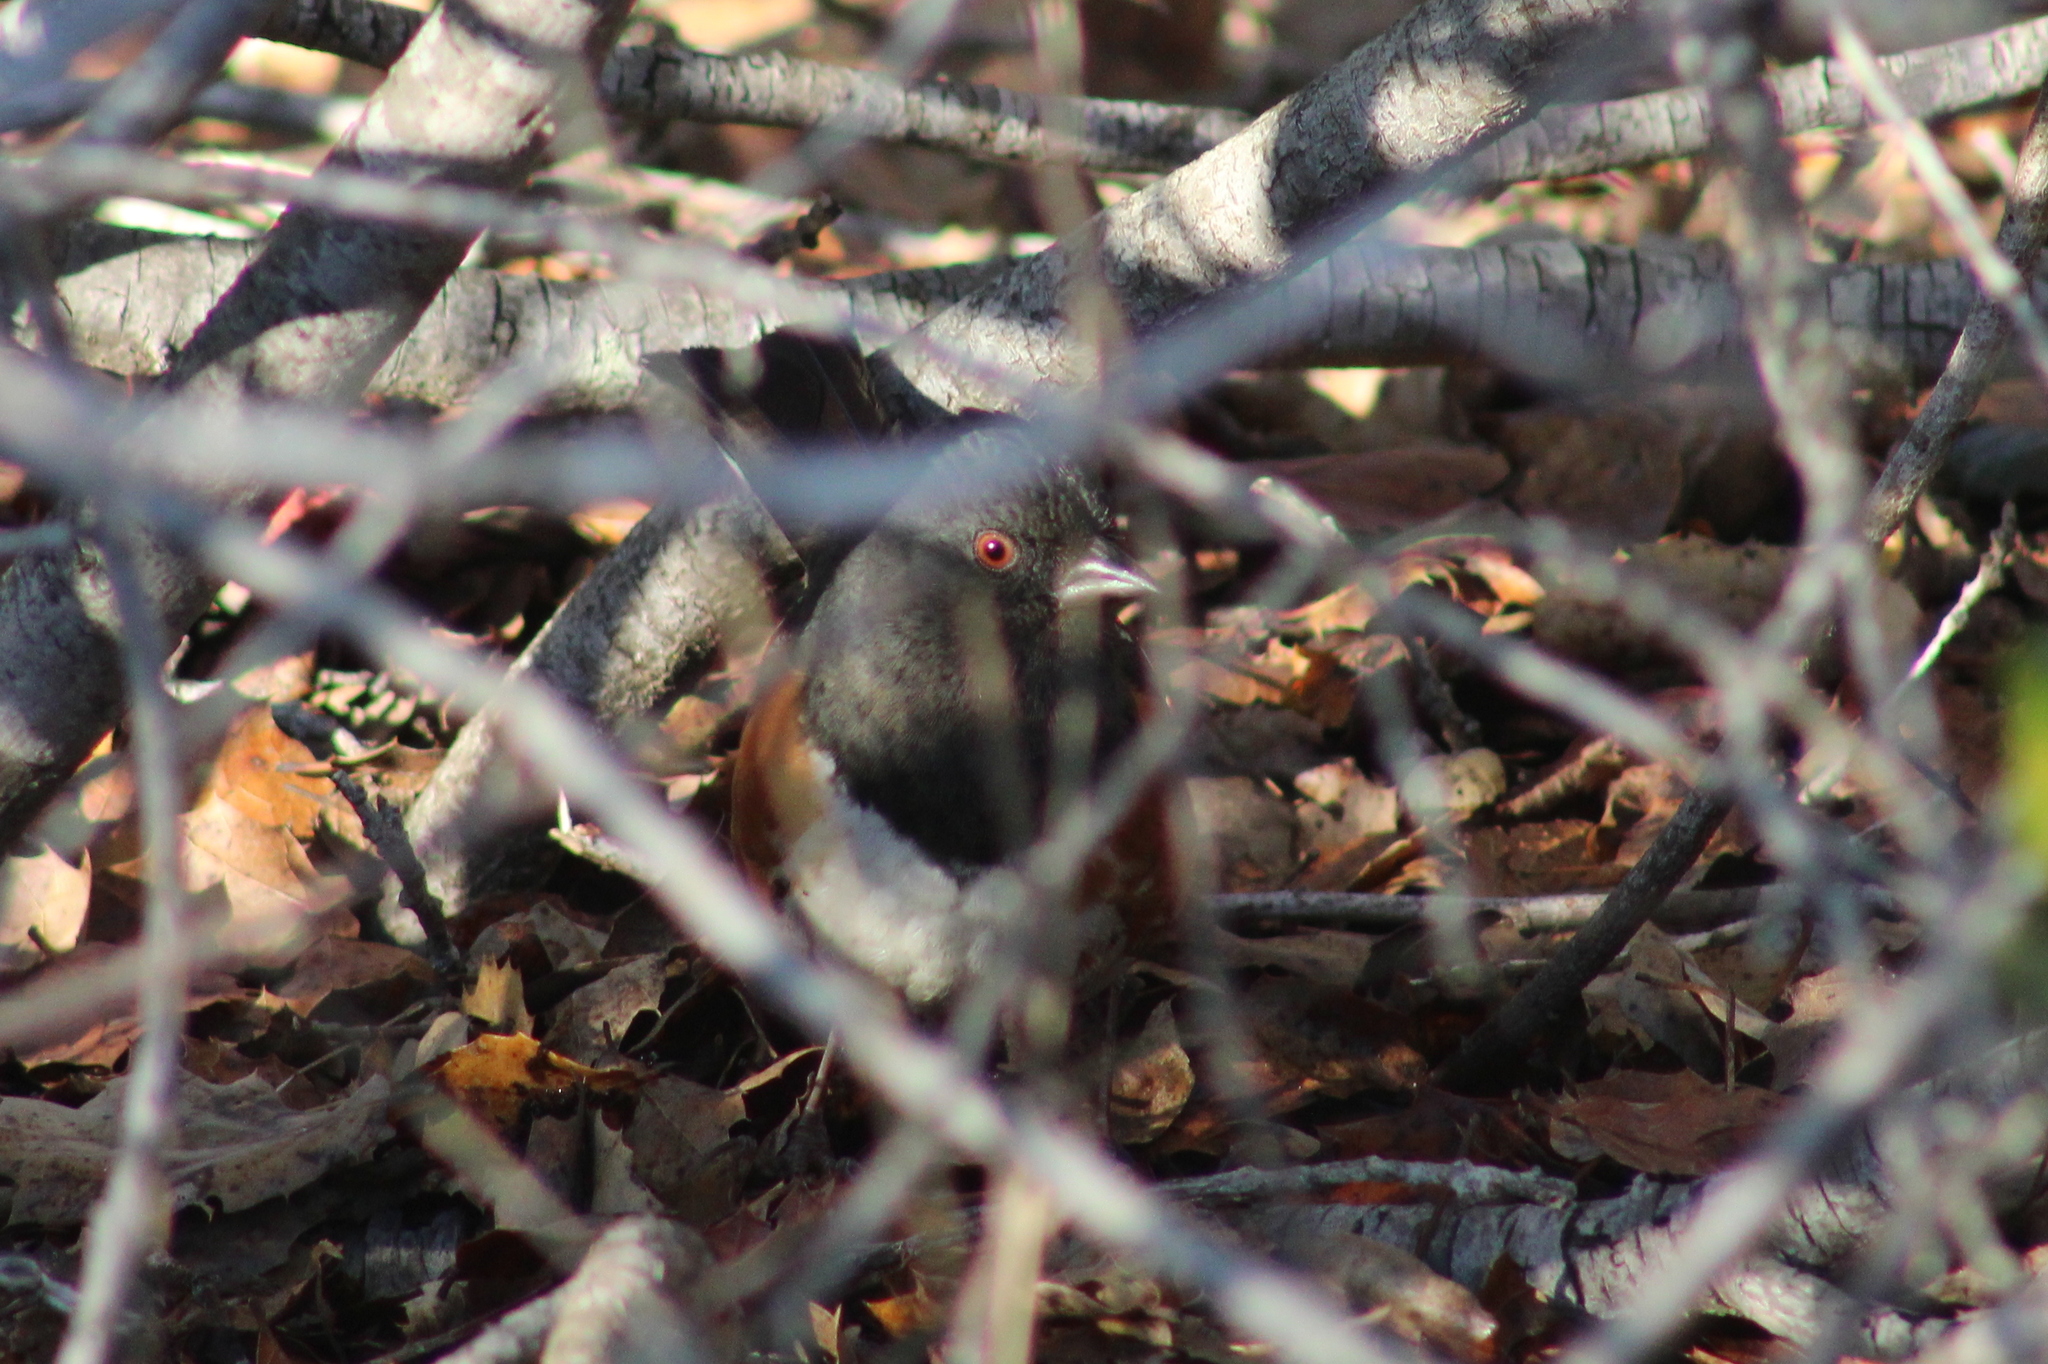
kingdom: Animalia
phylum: Chordata
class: Aves
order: Passeriformes
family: Passerellidae
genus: Pipilo
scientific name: Pipilo maculatus
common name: Spotted towhee
